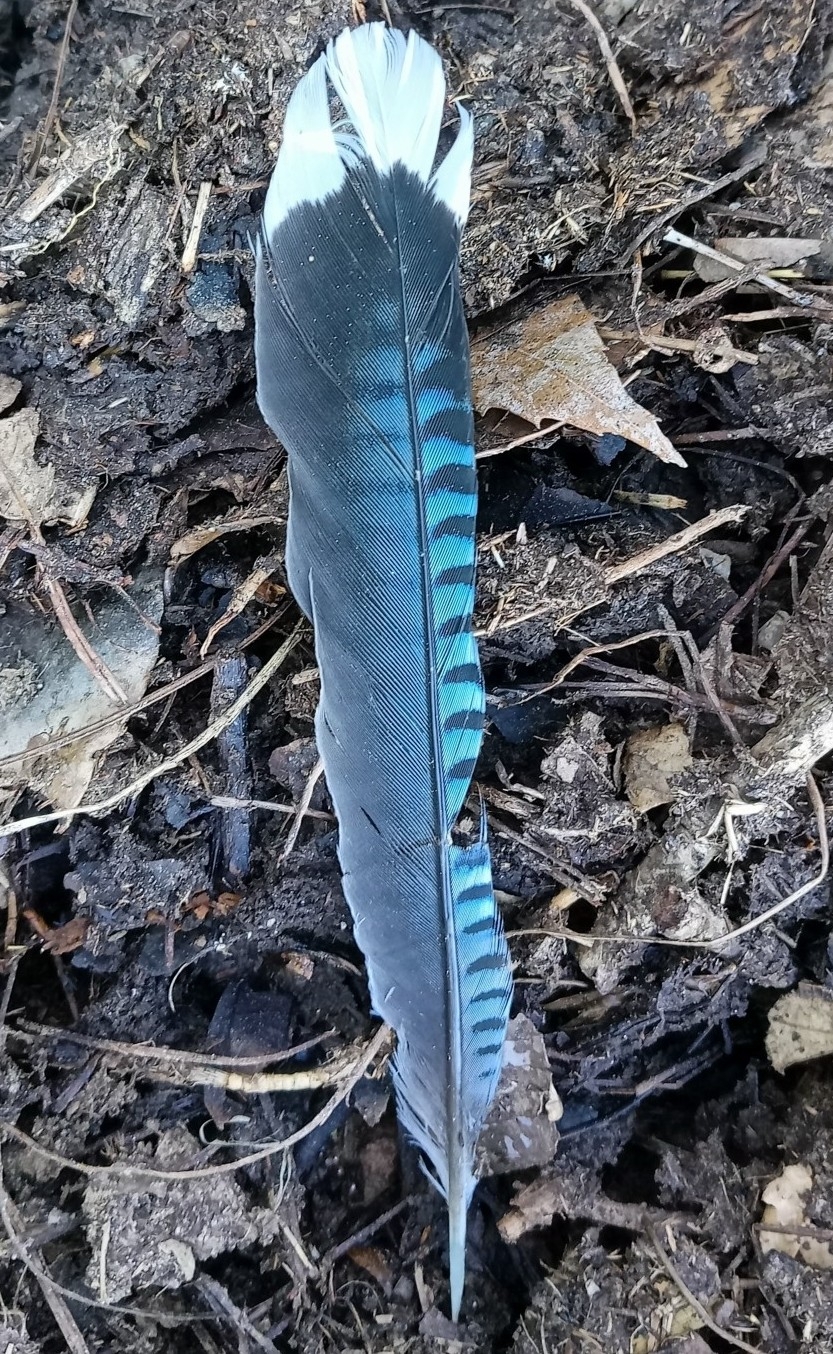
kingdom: Animalia
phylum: Chordata
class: Aves
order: Passeriformes
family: Corvidae
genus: Garrulus
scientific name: Garrulus lanceolatus
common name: Black-headed jay
